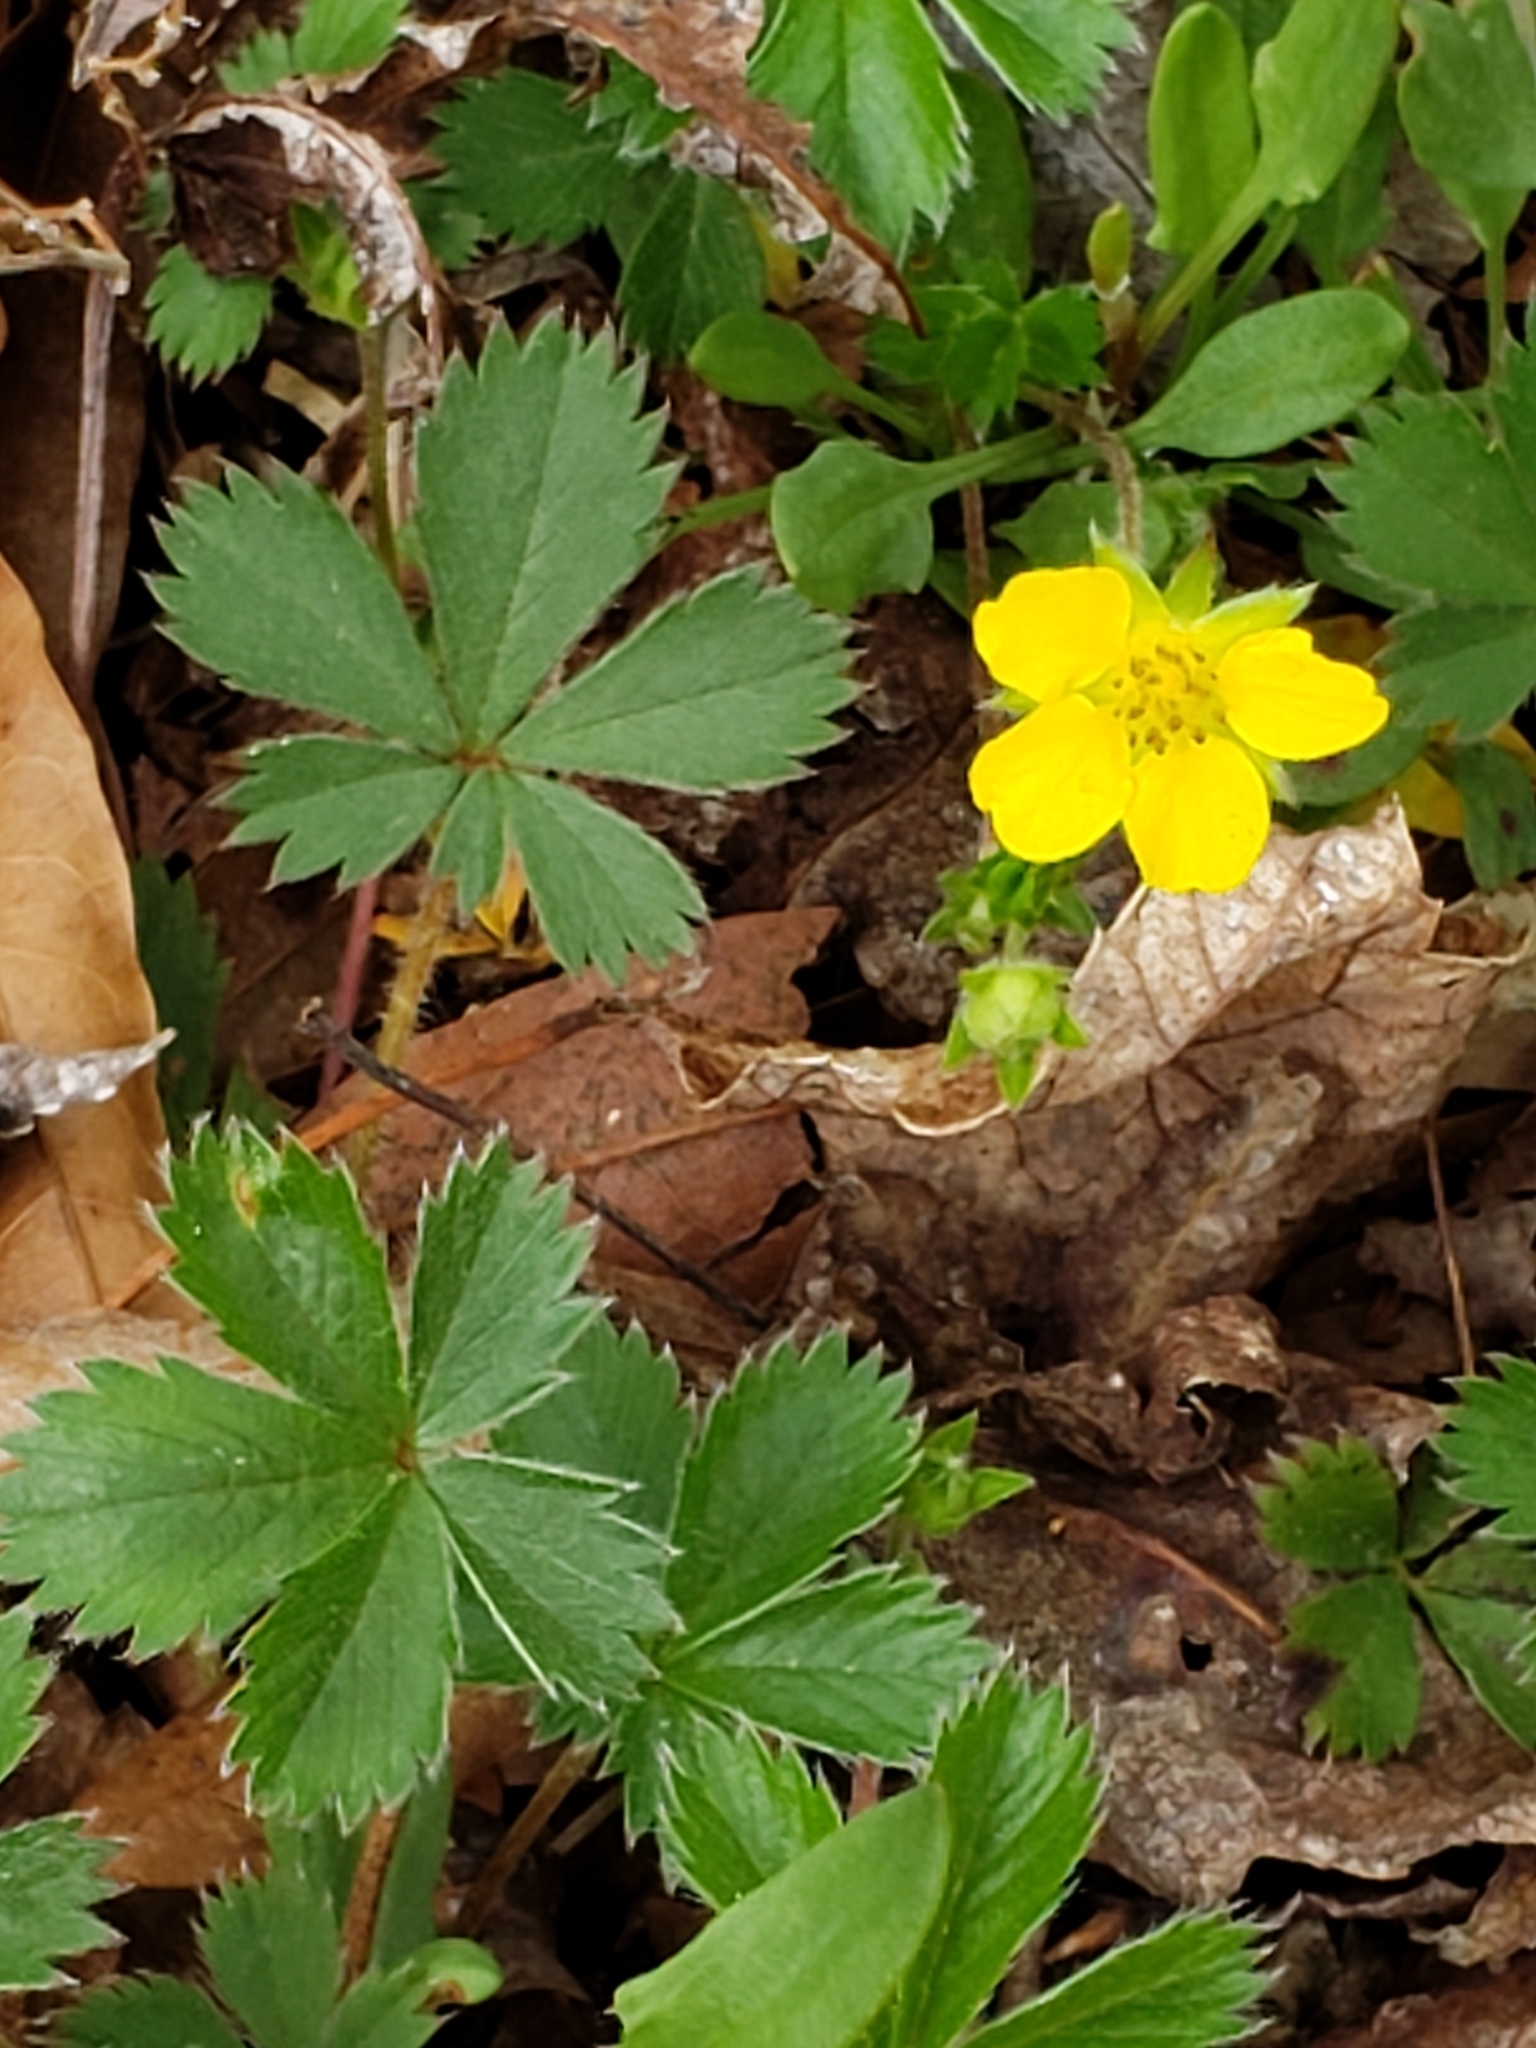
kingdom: Plantae
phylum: Tracheophyta
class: Magnoliopsida
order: Rosales
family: Rosaceae
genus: Potentilla
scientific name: Potentilla canadensis
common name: Canada cinquefoil
